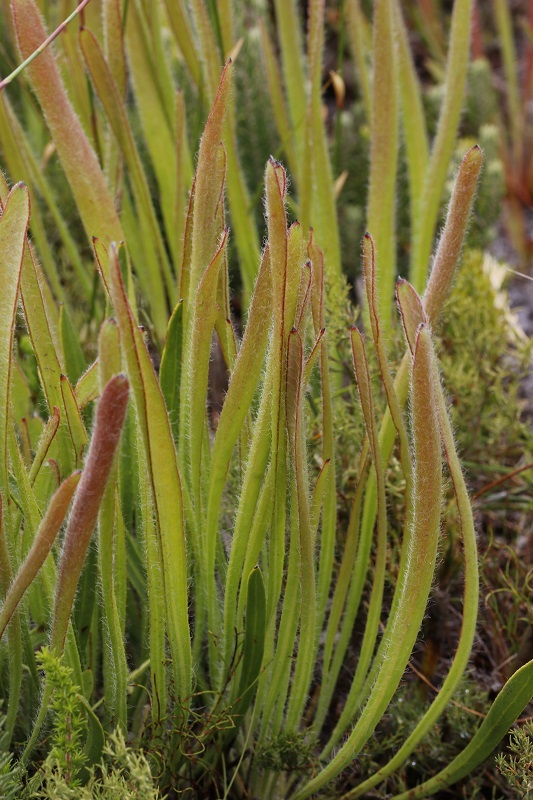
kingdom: Plantae
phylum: Tracheophyta
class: Magnoliopsida
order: Proteales
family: Proteaceae
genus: Protea
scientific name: Protea scabra
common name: Sandpaper-leaf sugarbush
